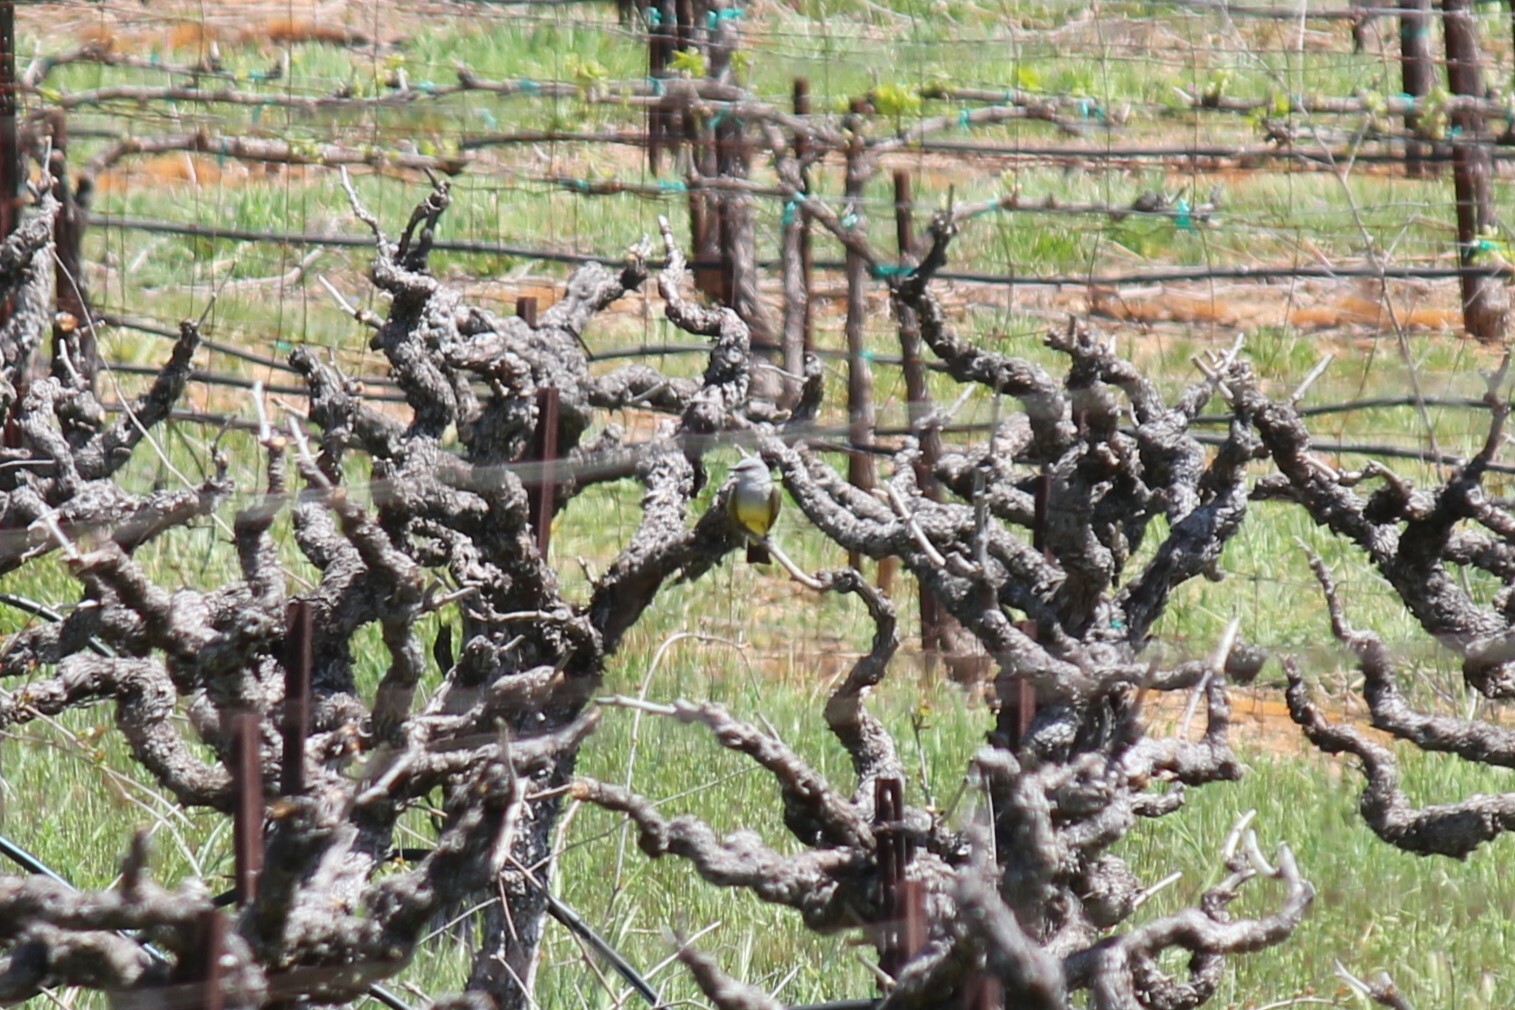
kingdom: Animalia
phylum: Chordata
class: Aves
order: Passeriformes
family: Tyrannidae
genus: Tyrannus
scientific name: Tyrannus verticalis
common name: Western kingbird
